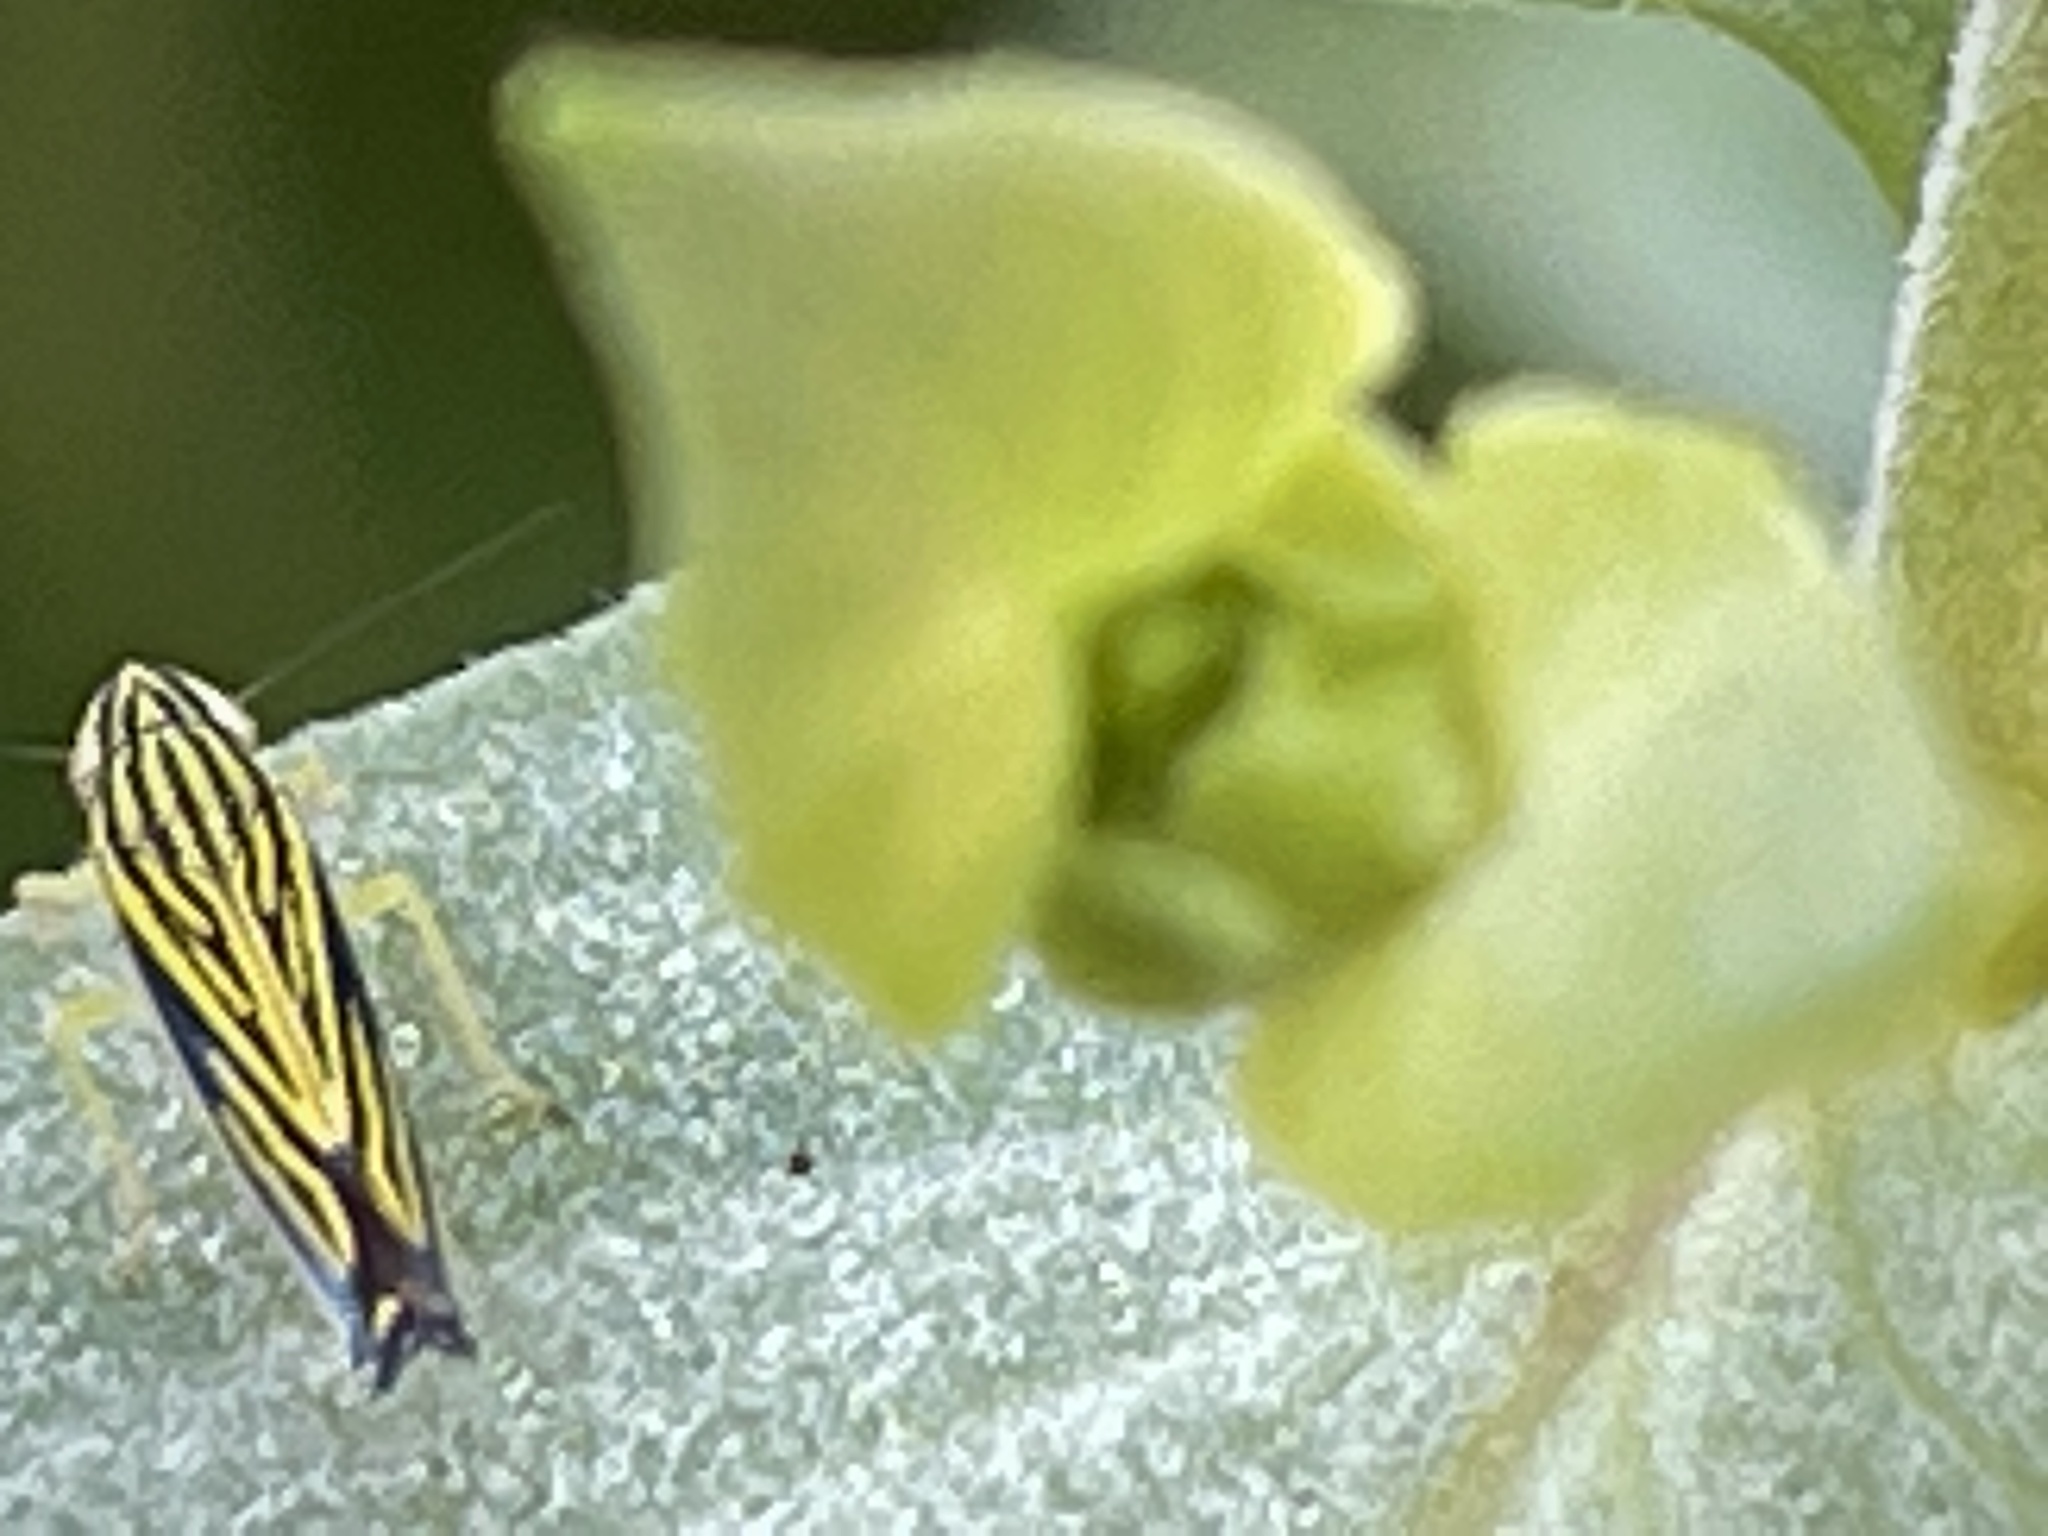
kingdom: Animalia
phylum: Arthropoda
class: Insecta
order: Hemiptera
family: Cicadellidae
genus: Sibovia
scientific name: Sibovia occatoria
